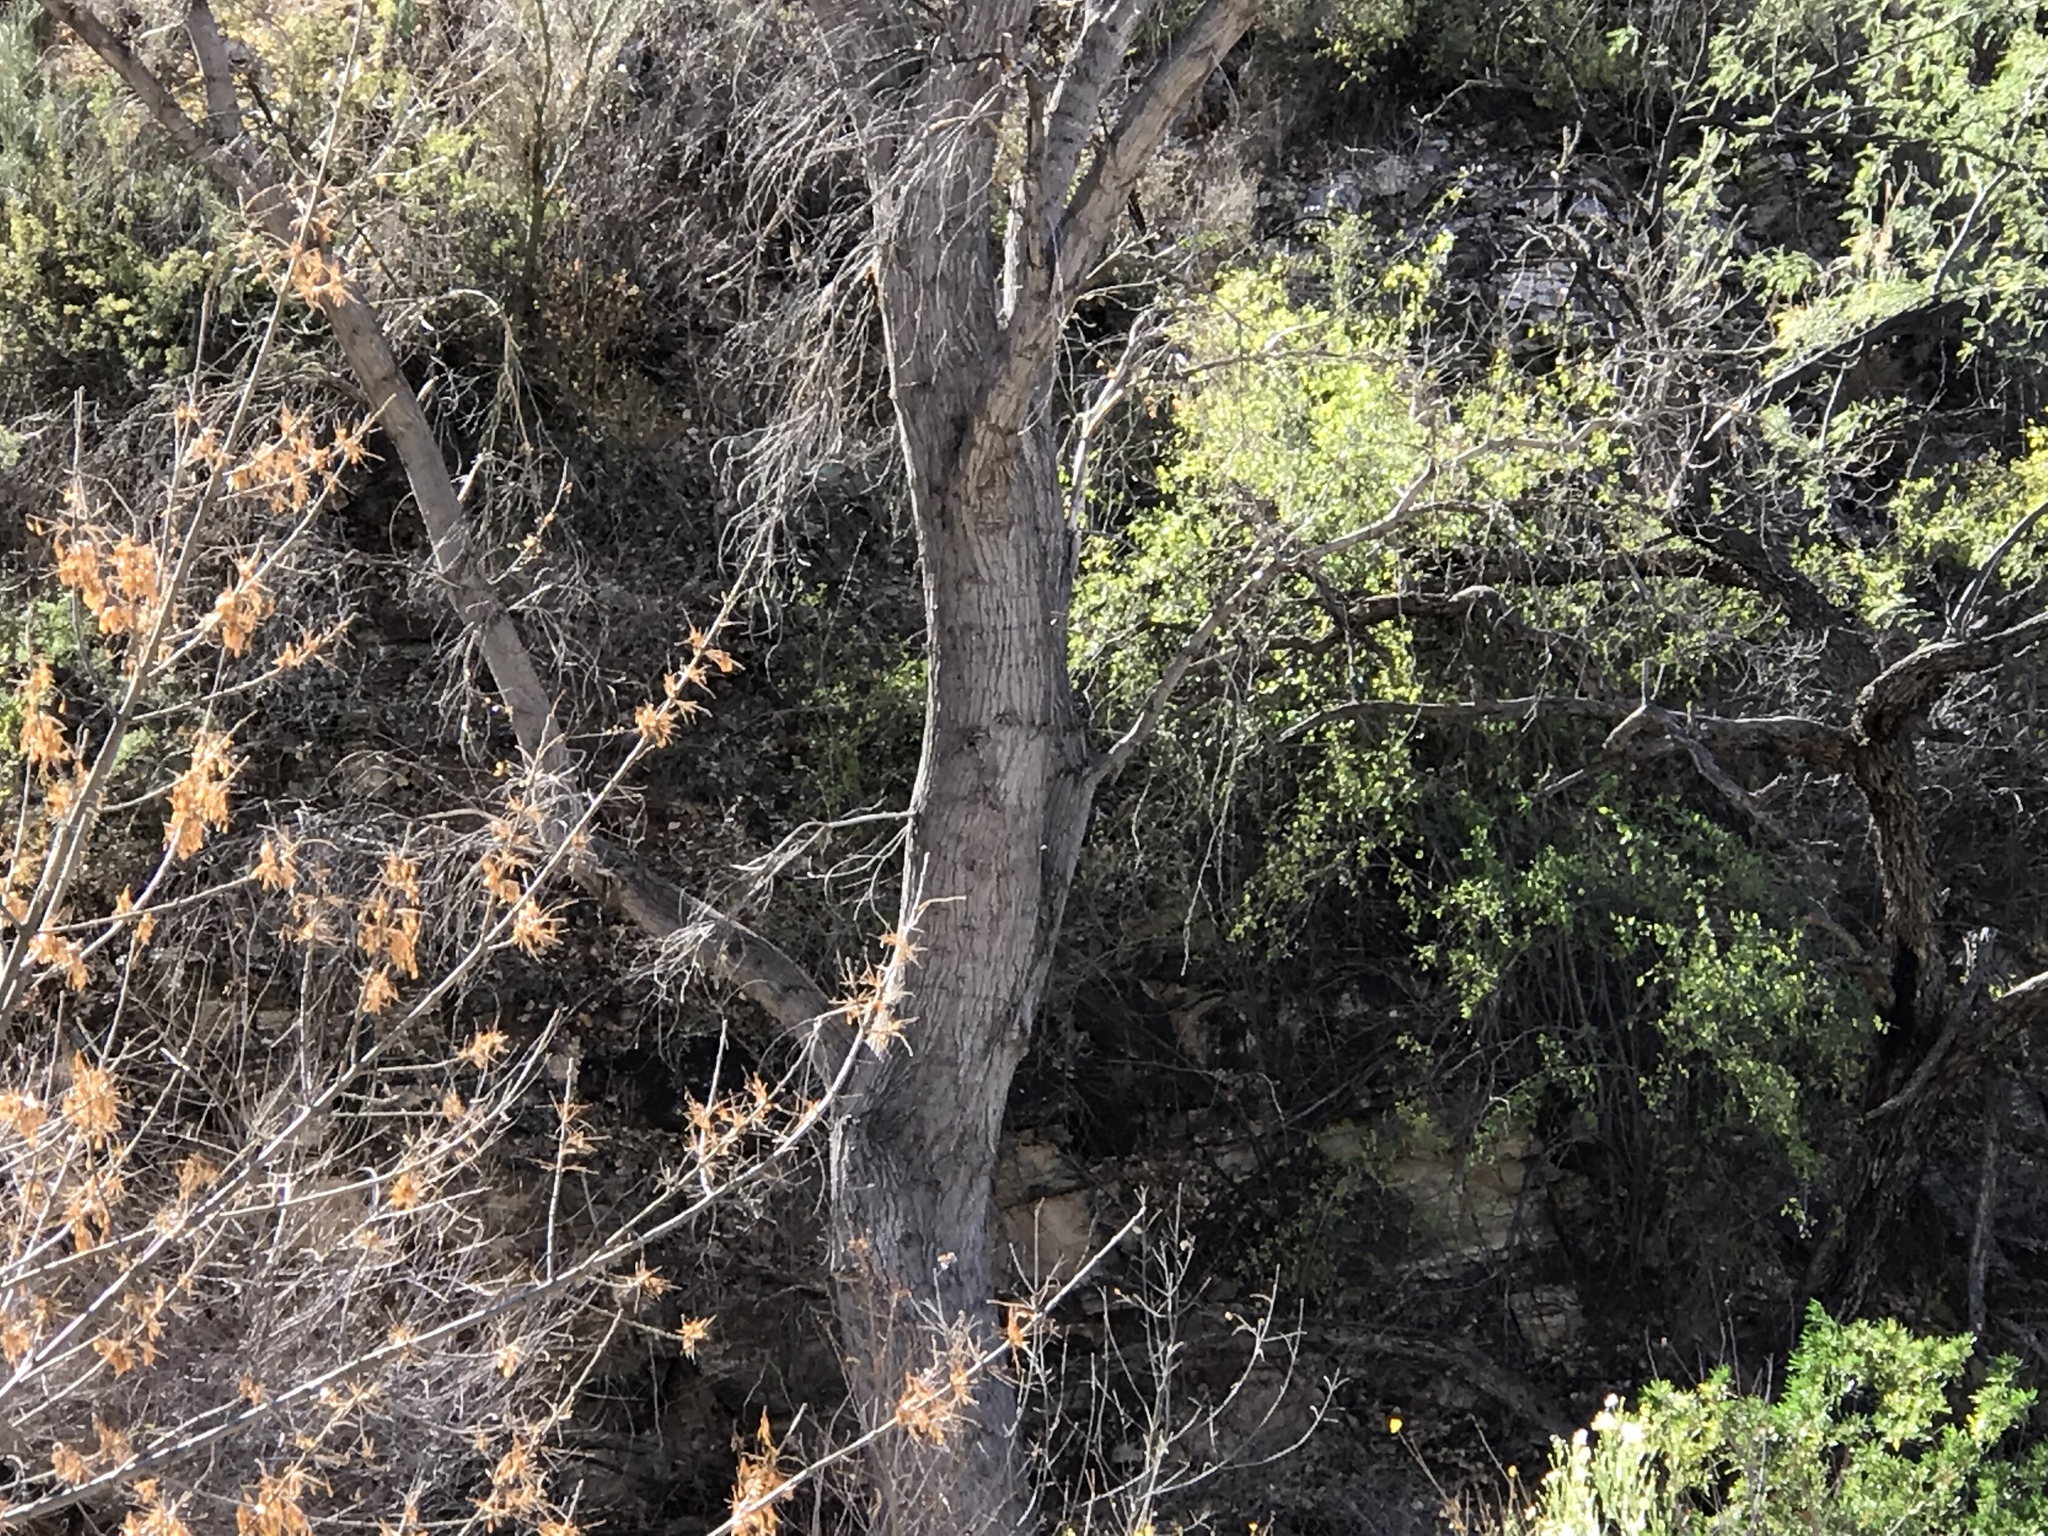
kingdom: Plantae
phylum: Tracheophyta
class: Magnoliopsida
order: Malpighiales
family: Salicaceae
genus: Populus
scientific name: Populus fremontii
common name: Fremont's cottonwood
